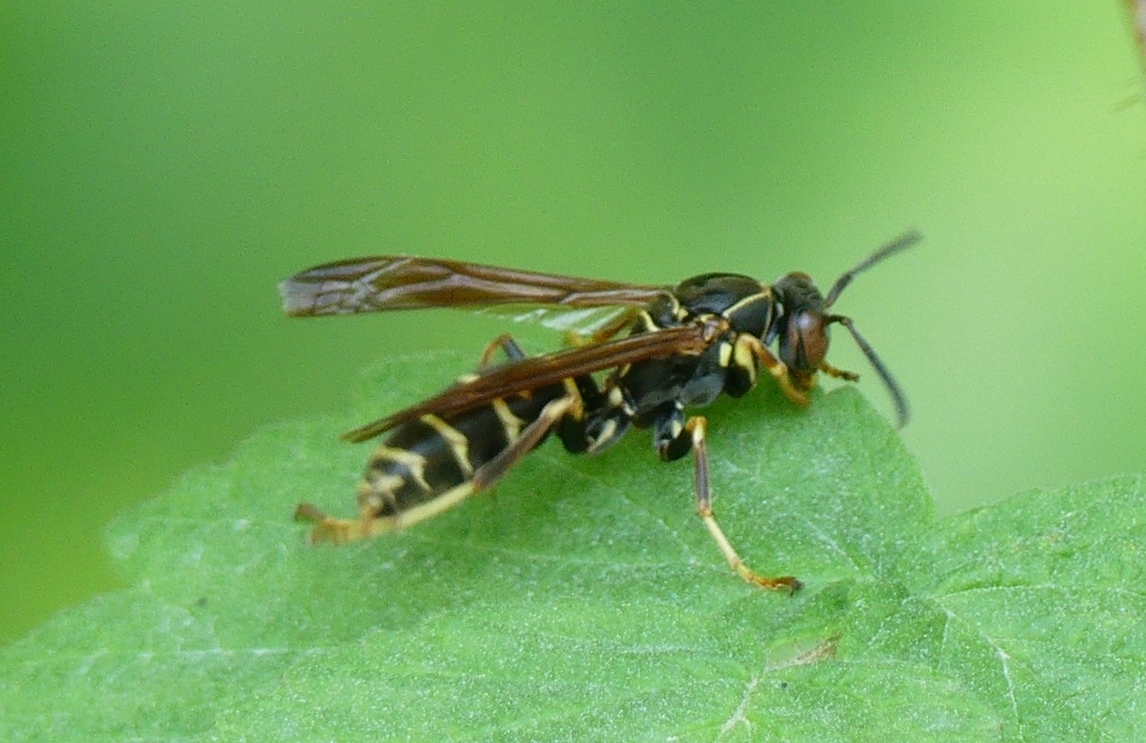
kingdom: Animalia
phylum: Arthropoda
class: Insecta
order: Hymenoptera
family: Eumenidae
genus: Polistes
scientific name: Polistes fuscatus
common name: Dark paper wasp
